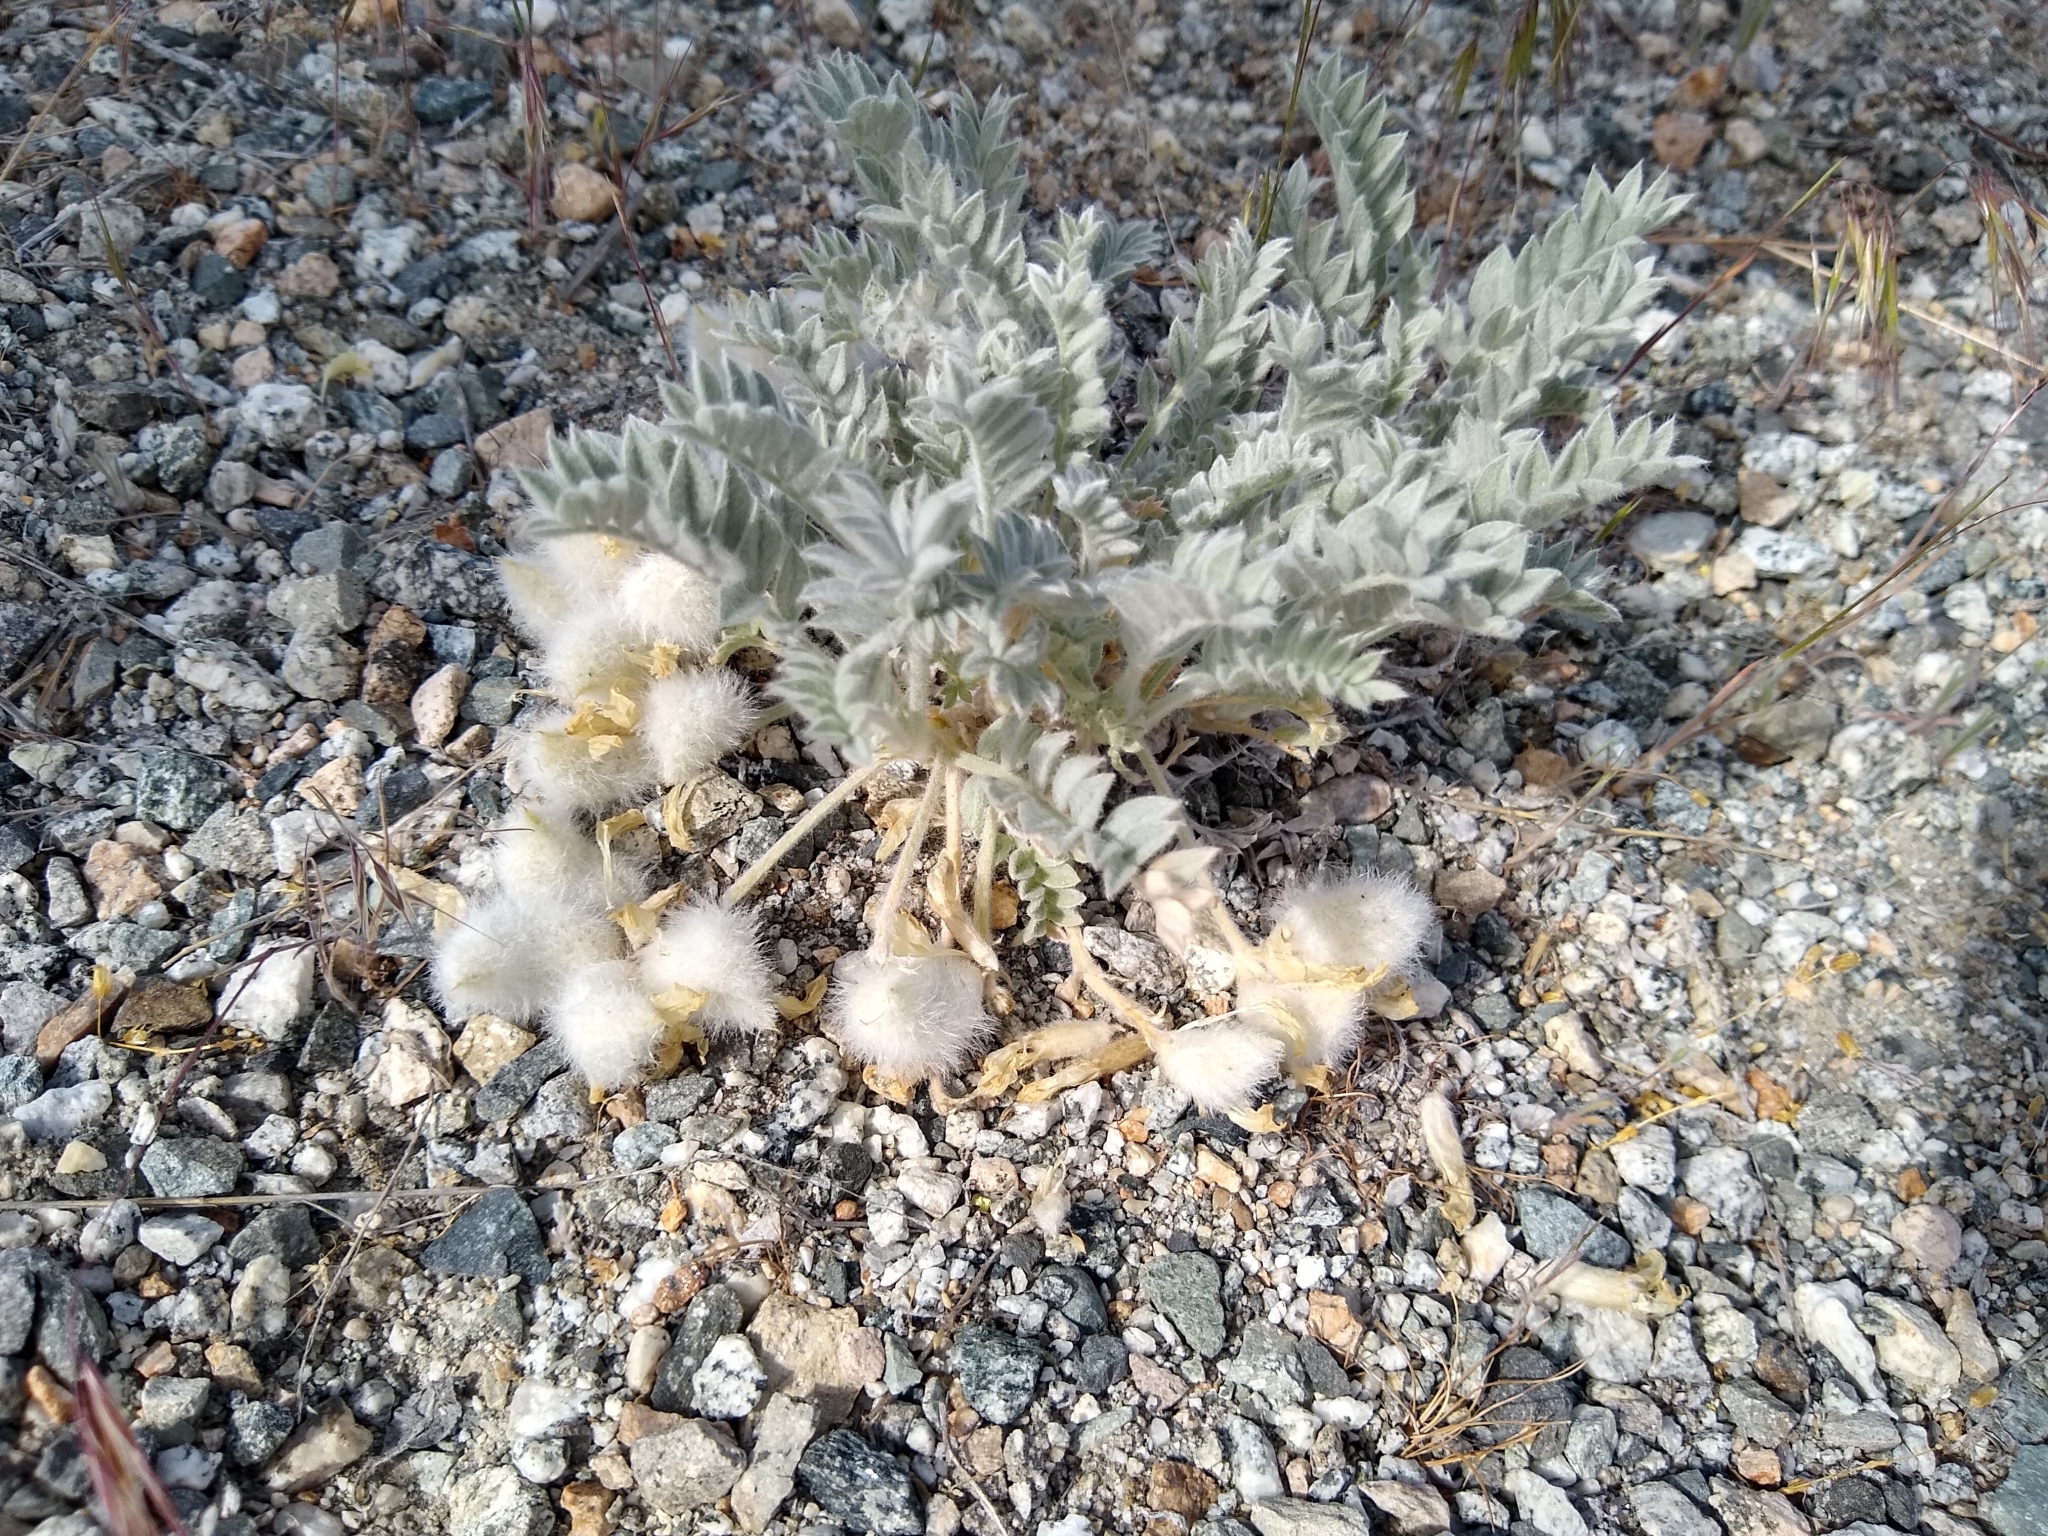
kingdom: Plantae
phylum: Tracheophyta
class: Magnoliopsida
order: Fabales
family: Fabaceae
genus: Astragalus
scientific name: Astragalus purshii
